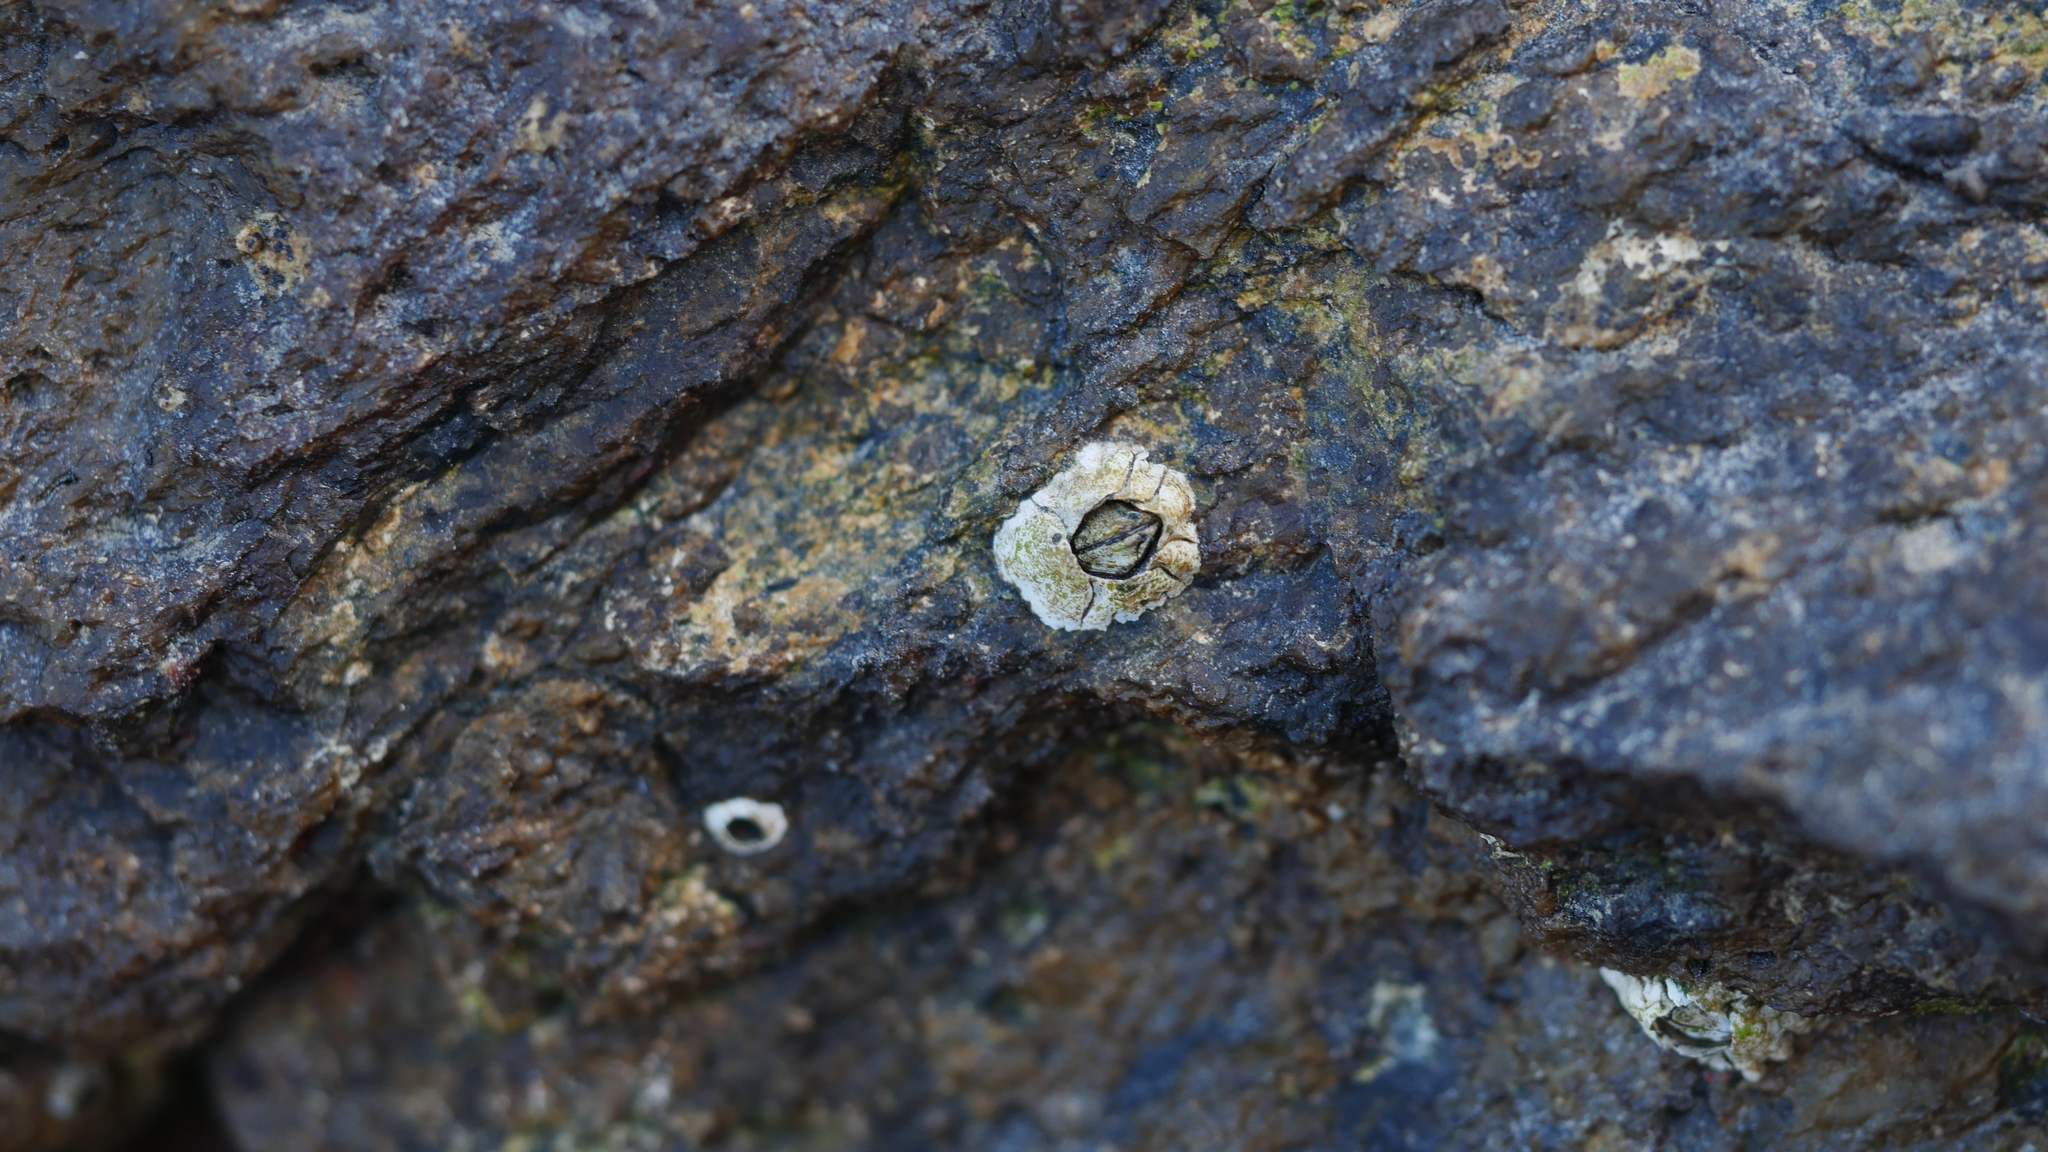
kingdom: Animalia
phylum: Arthropoda
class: Maxillopoda
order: Sessilia
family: Archaeobalanidae
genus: Semibalanus
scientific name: Semibalanus balanoides
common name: Acorn barnacle
